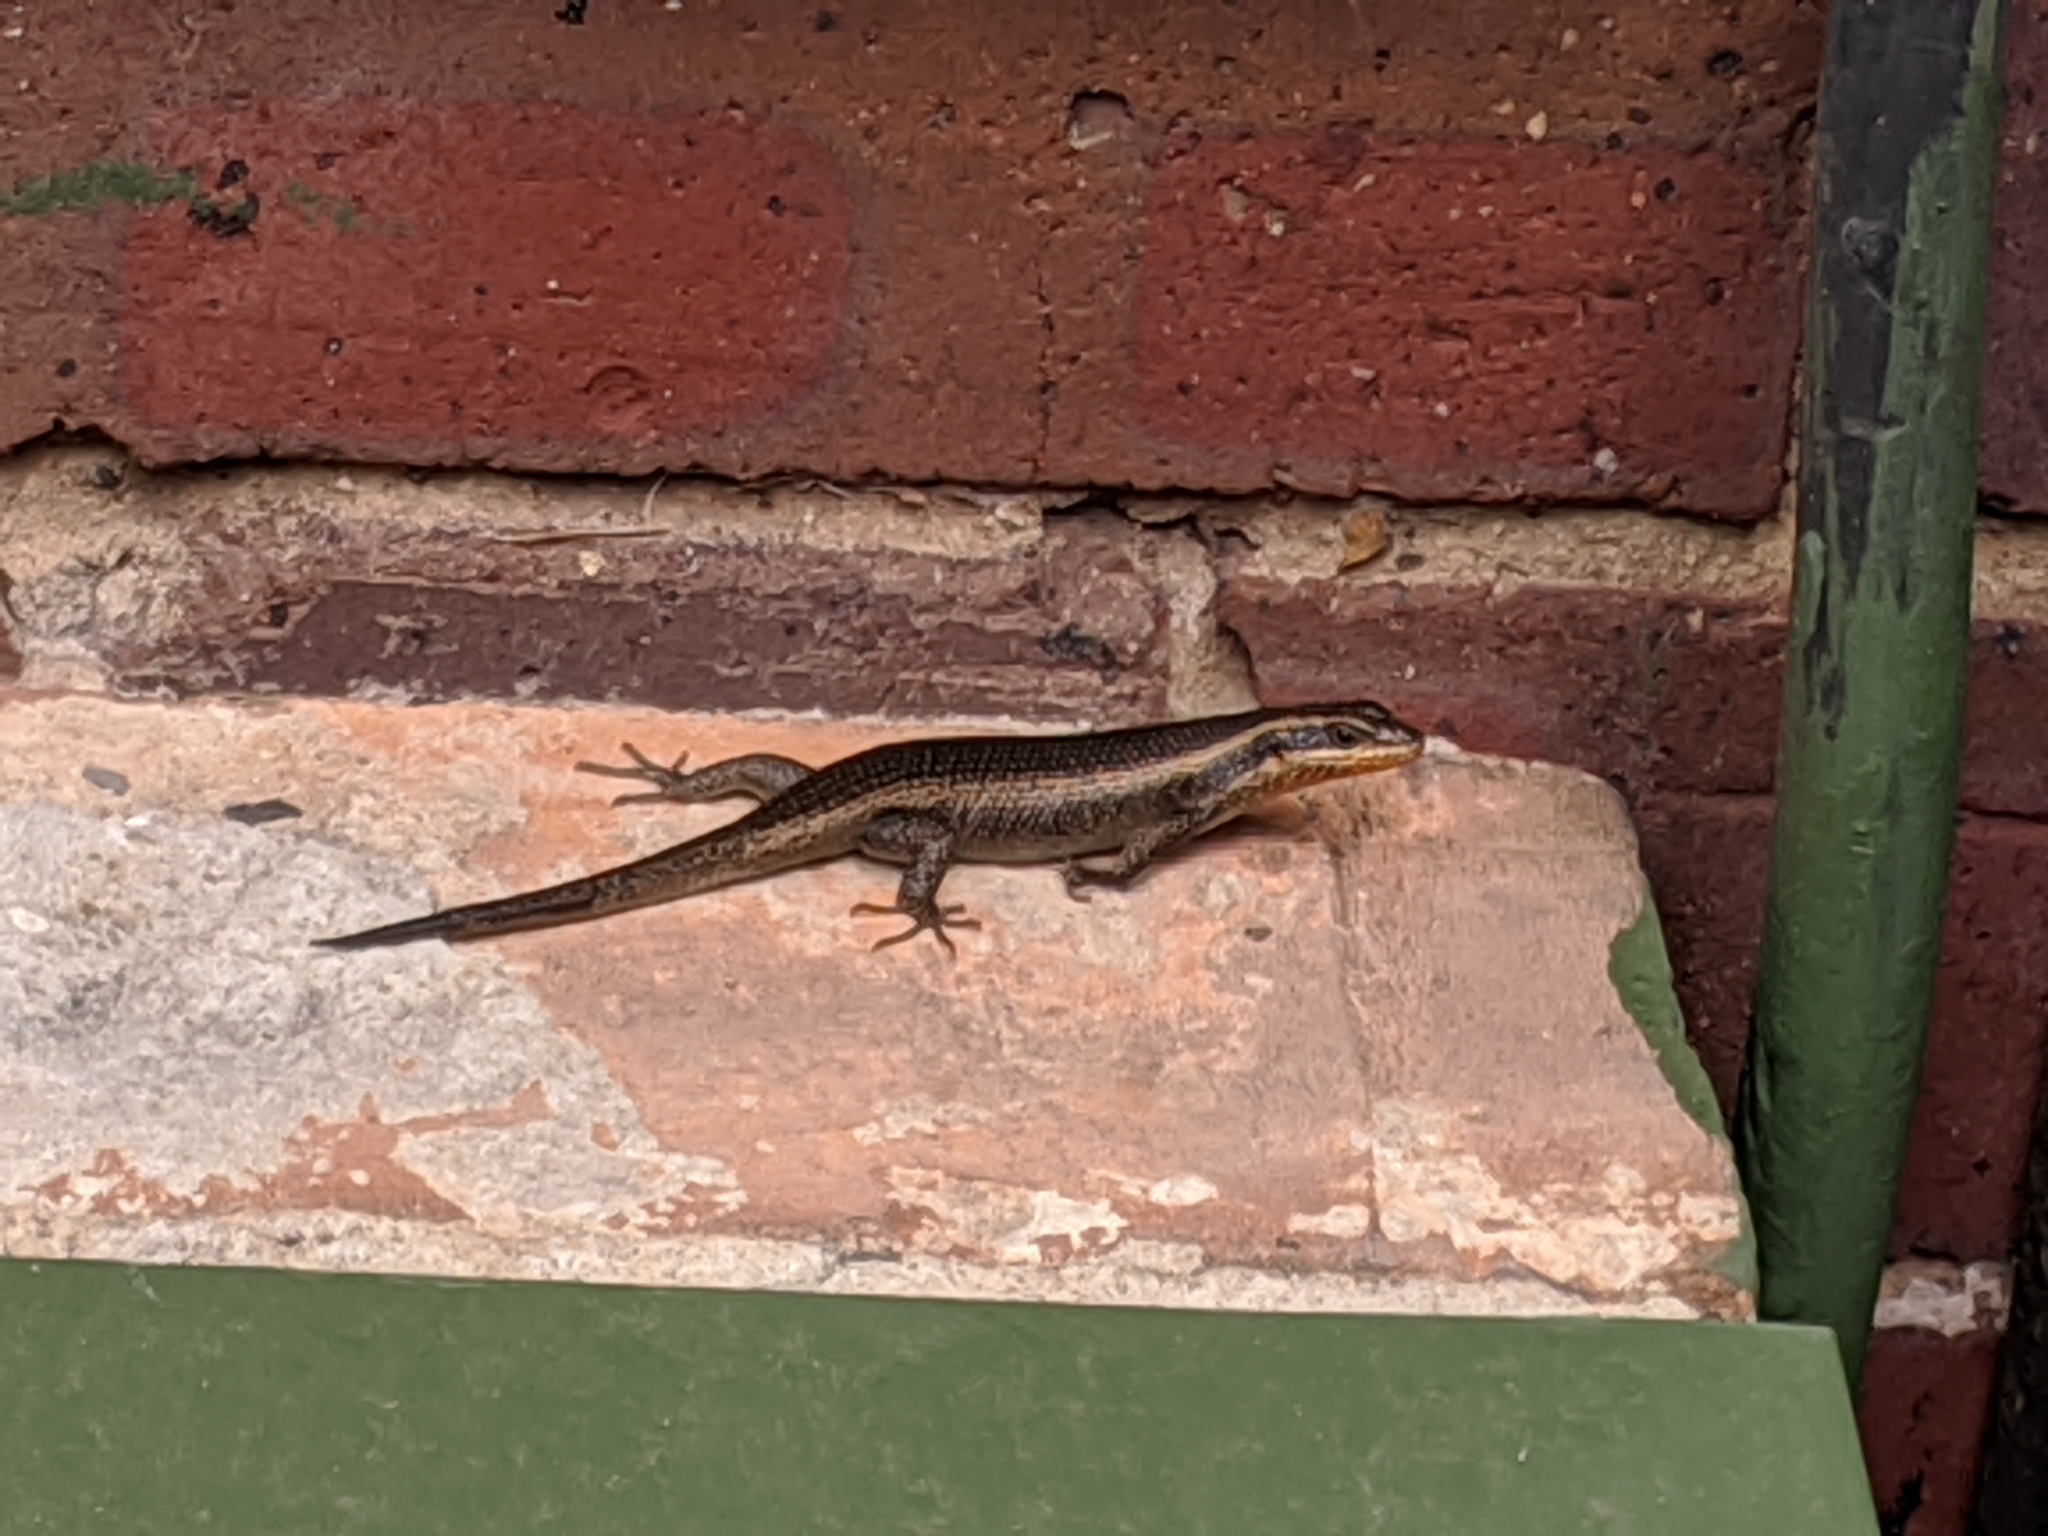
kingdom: Animalia
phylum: Chordata
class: Squamata
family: Scincidae
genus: Trachylepis
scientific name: Trachylepis punctatissima
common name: Montane speckled skink
